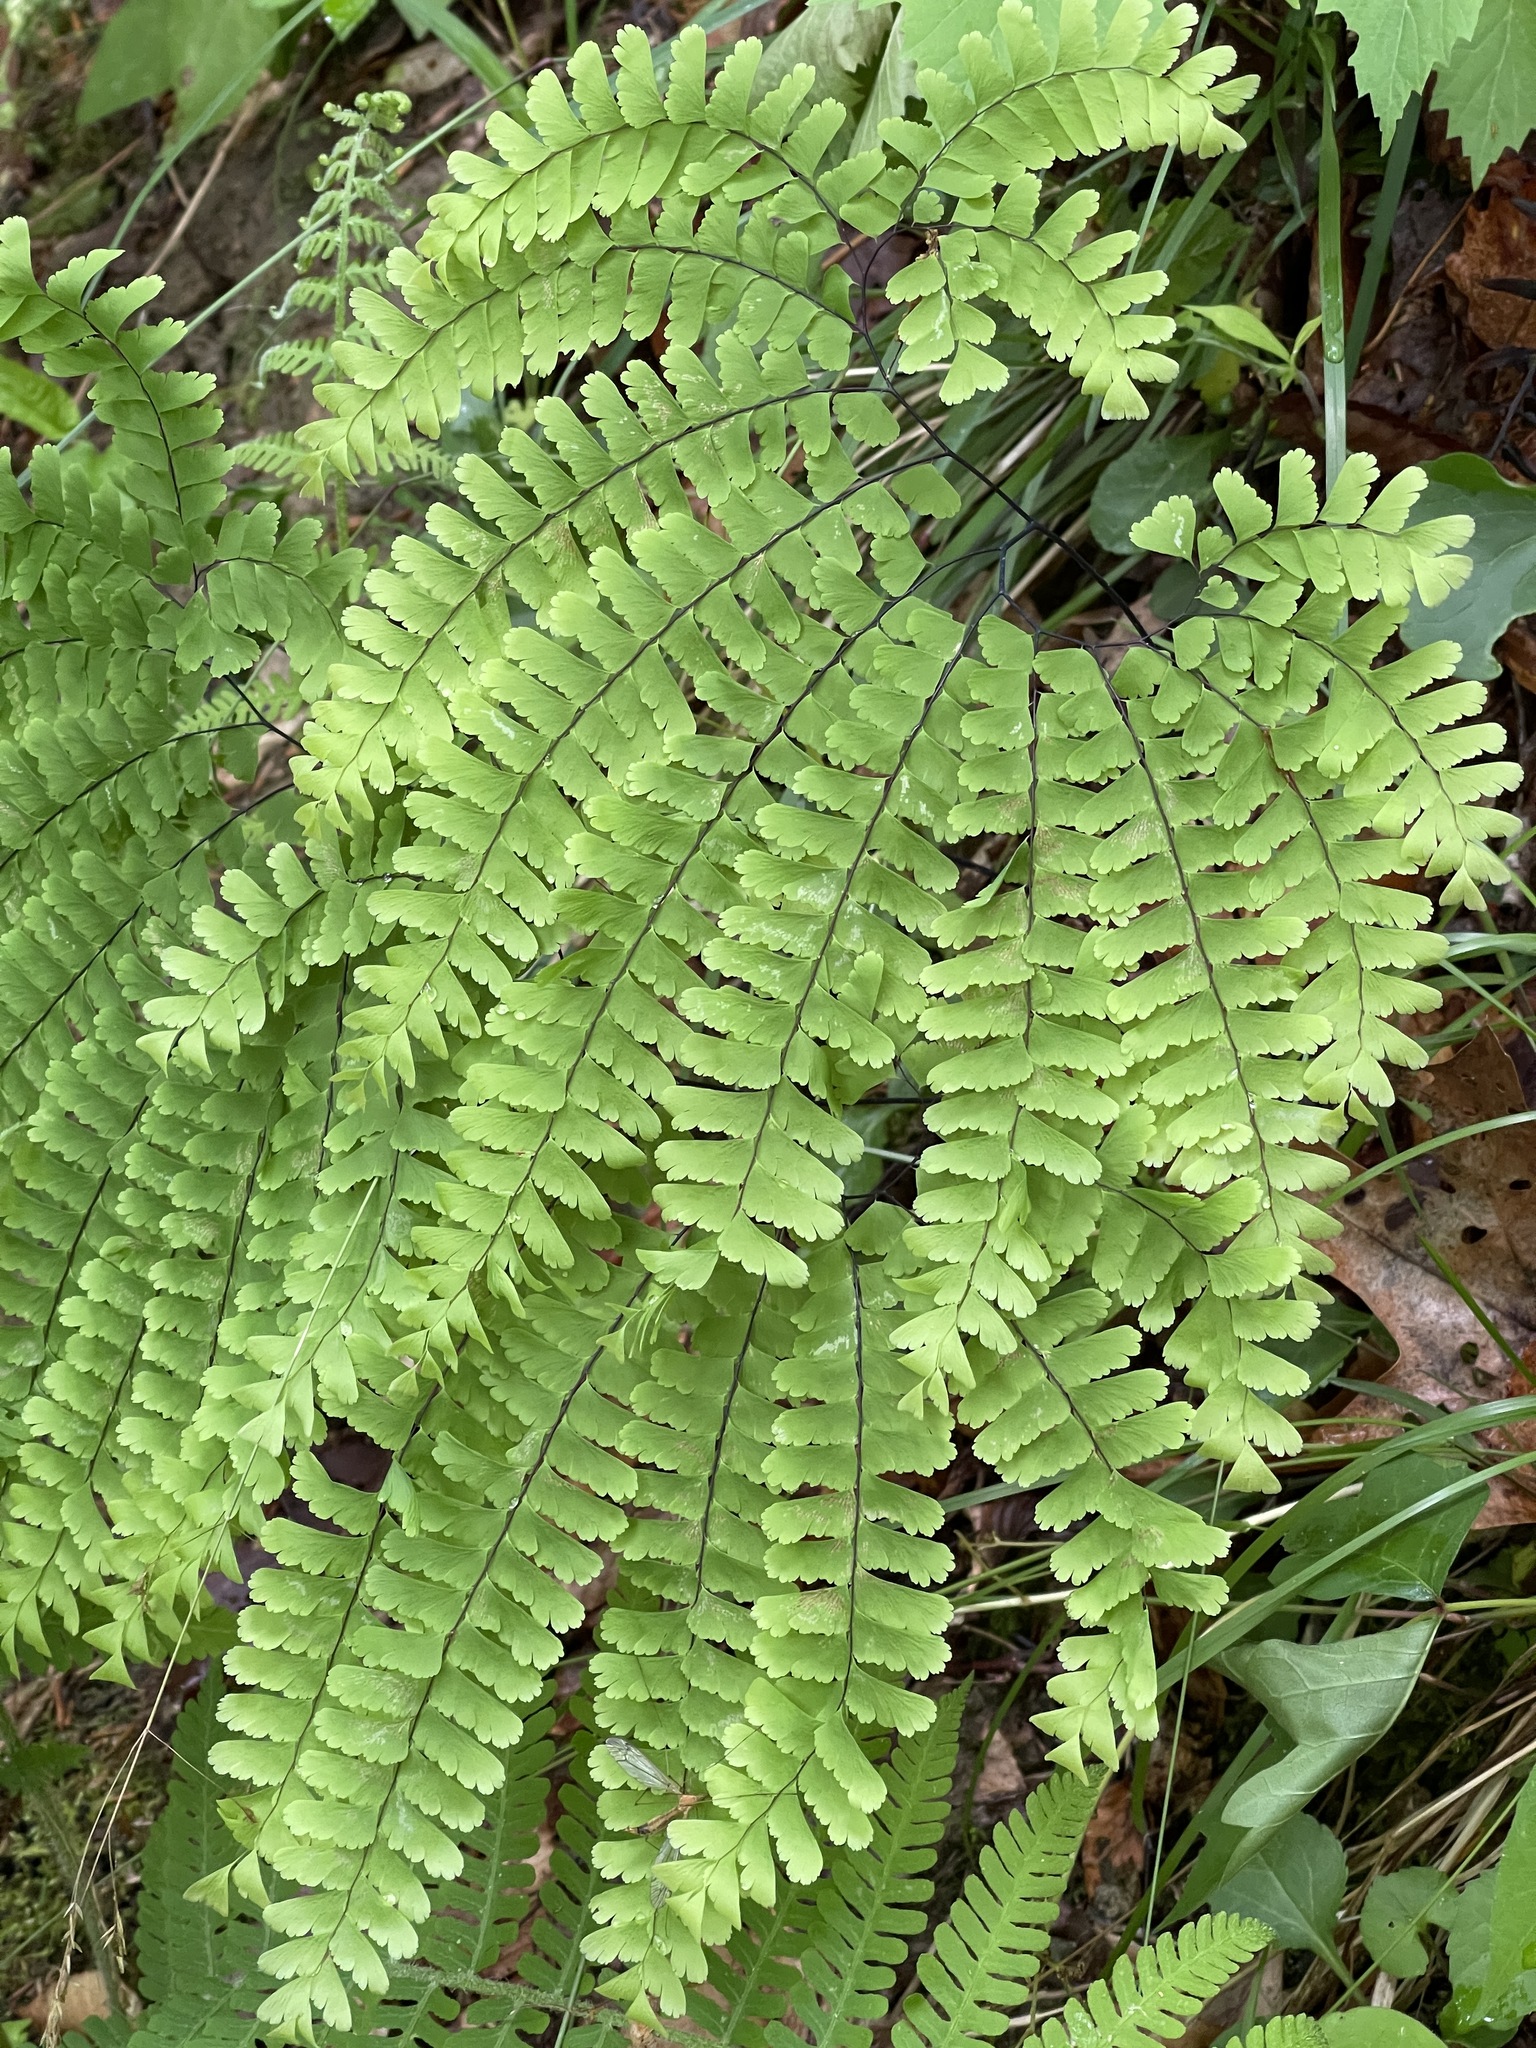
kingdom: Plantae
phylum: Tracheophyta
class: Polypodiopsida
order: Polypodiales
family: Pteridaceae
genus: Adiantum
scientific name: Adiantum pedatum
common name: Five-finger fern
